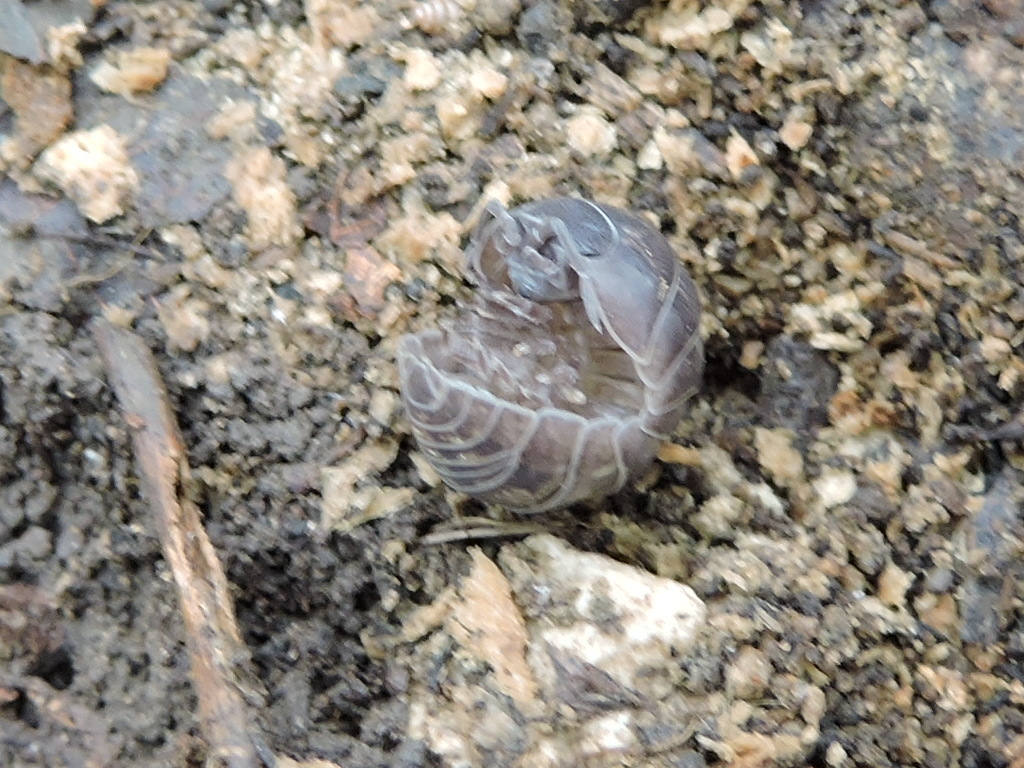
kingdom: Animalia
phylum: Arthropoda
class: Malacostraca
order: Isopoda
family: Armadillidiidae
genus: Armadillidium
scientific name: Armadillidium vulgare
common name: Common pill woodlouse
